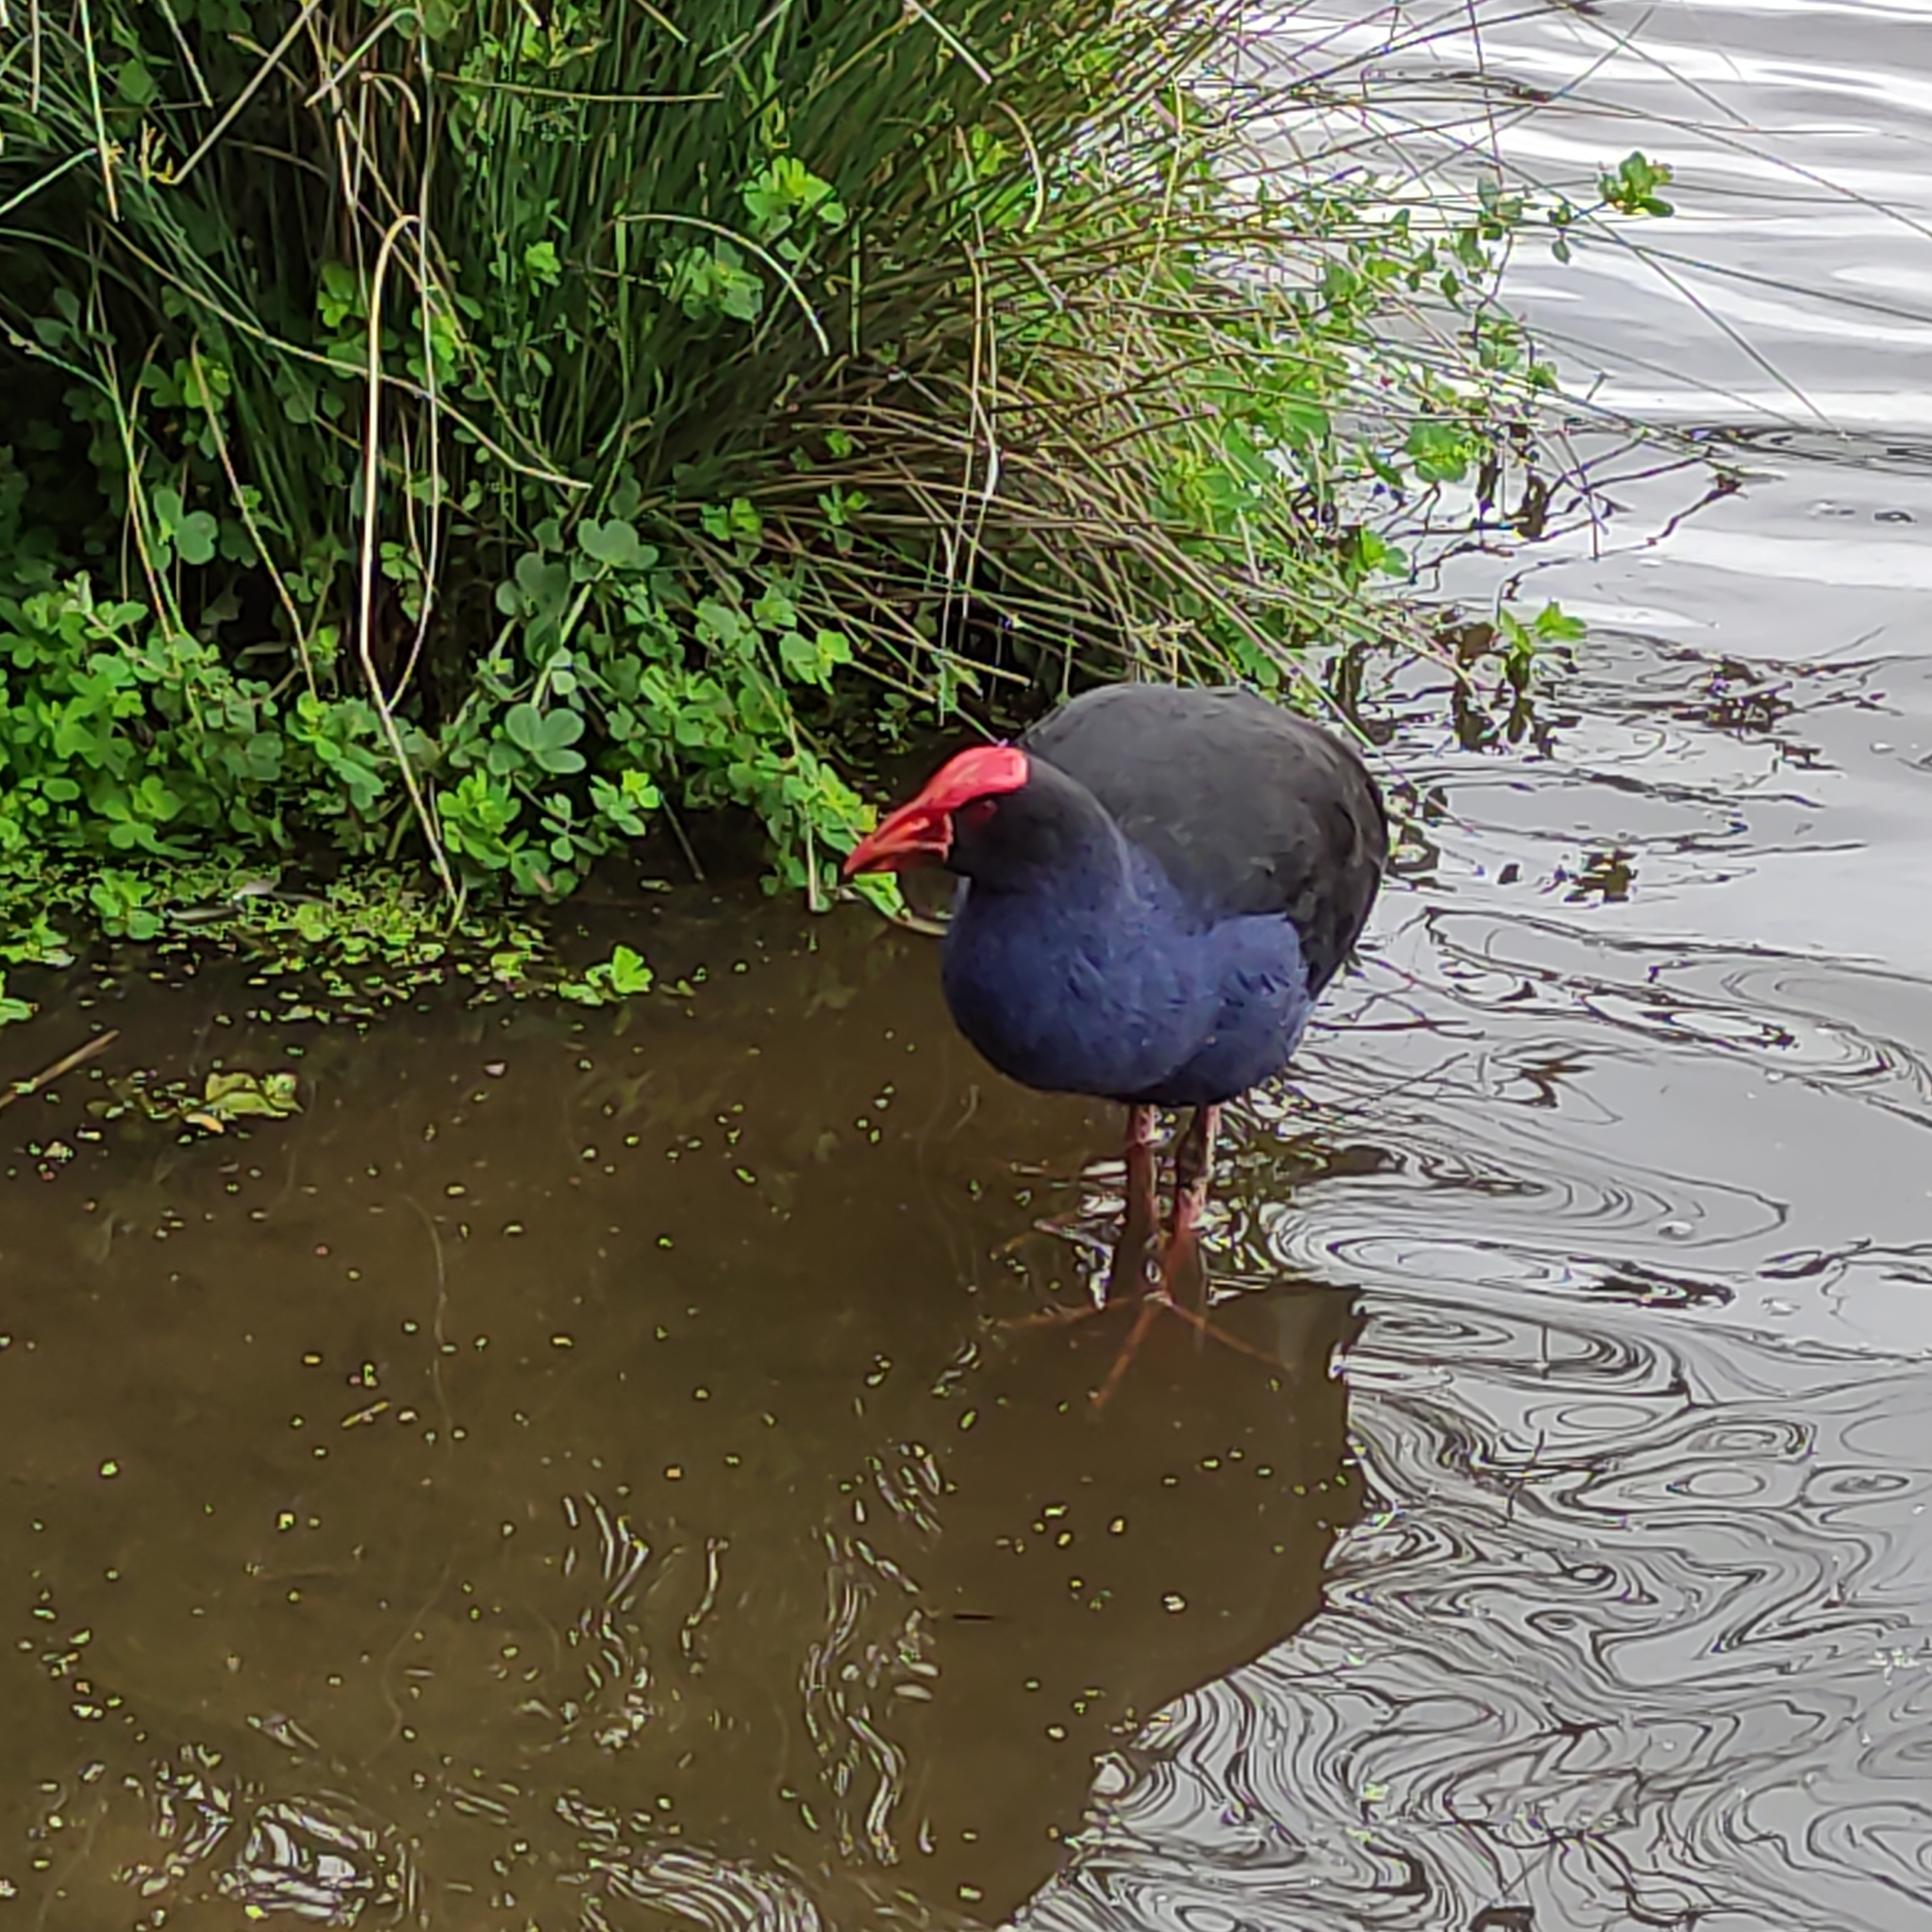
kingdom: Animalia
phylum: Chordata
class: Aves
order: Gruiformes
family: Rallidae
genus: Porphyrio
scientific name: Porphyrio melanotus
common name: Australasian swamphen
